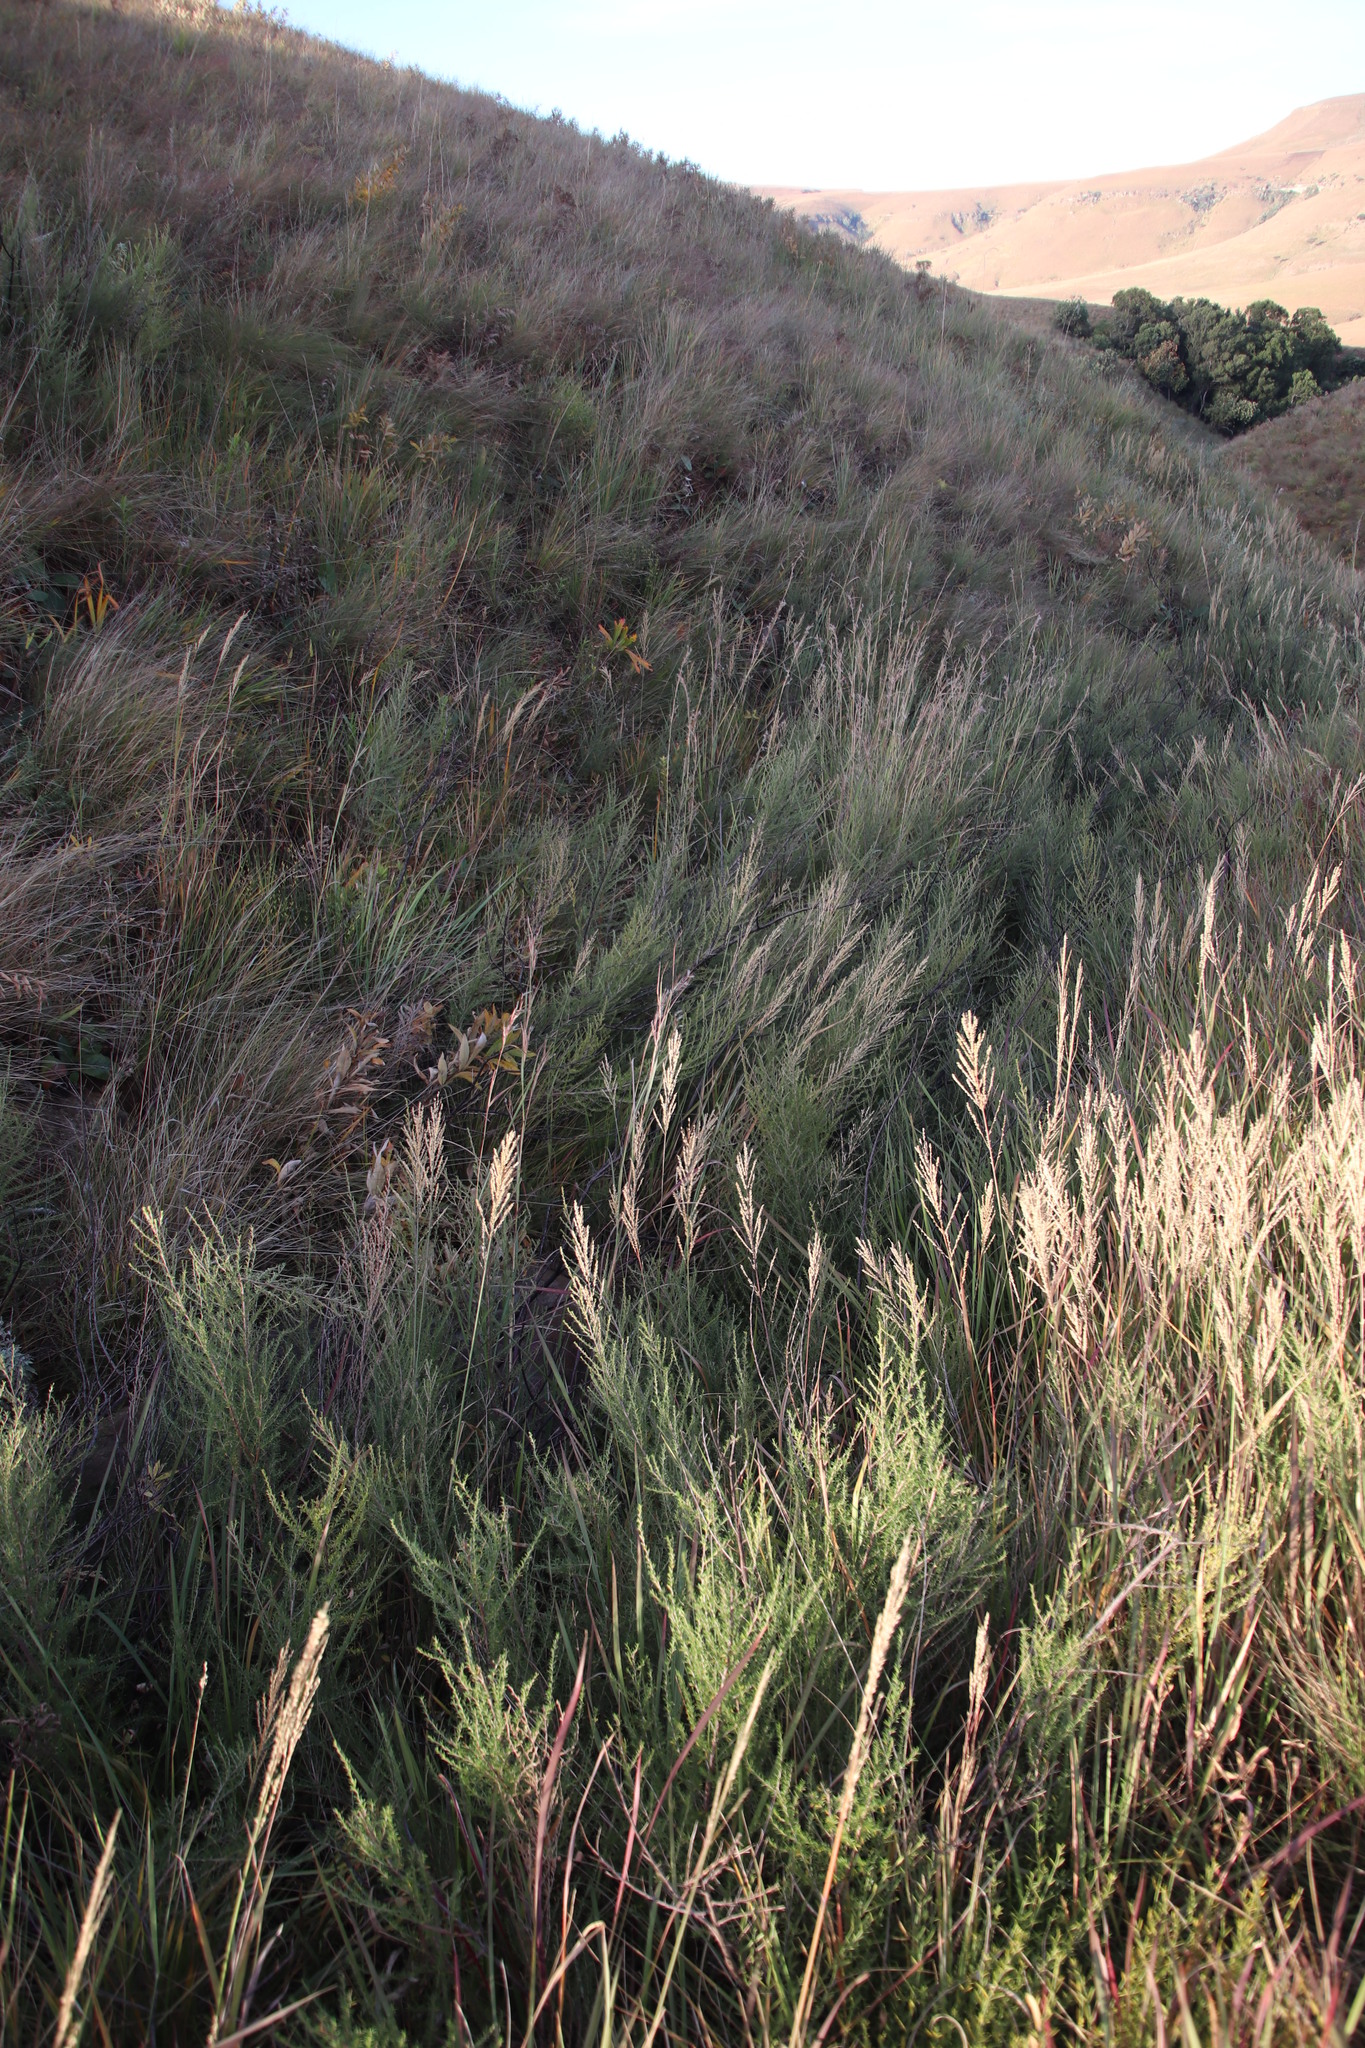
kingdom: Plantae
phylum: Tracheophyta
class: Magnoliopsida
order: Rosales
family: Rosaceae
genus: Cliffortia
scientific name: Cliffortia linearifolia
